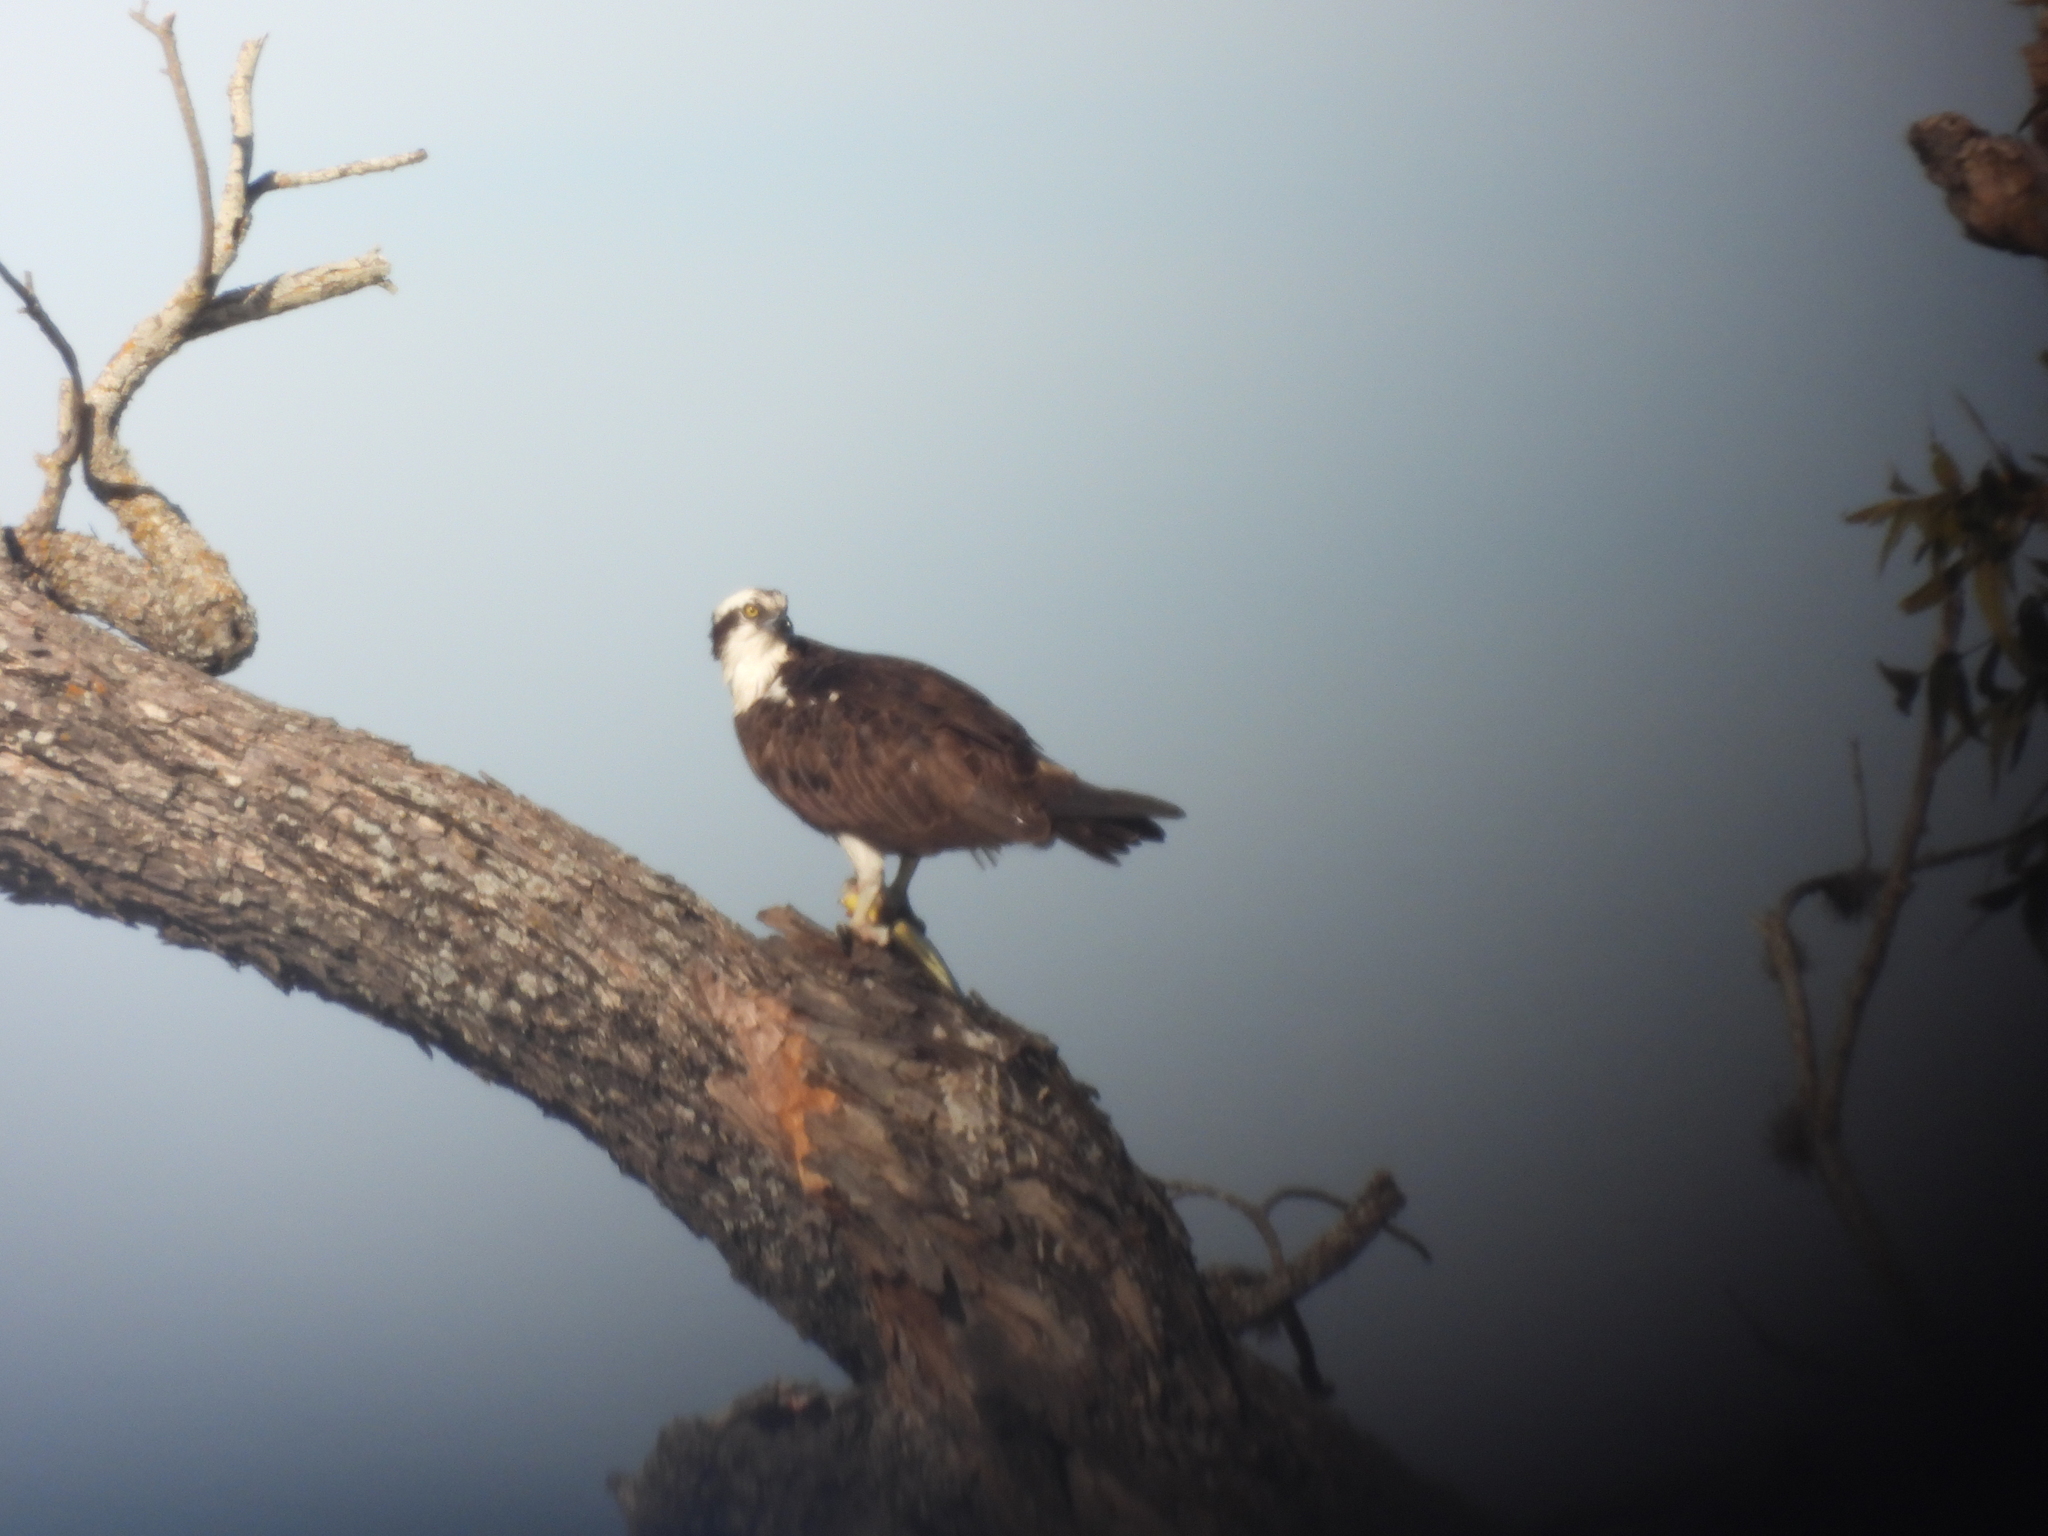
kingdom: Animalia
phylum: Chordata
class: Aves
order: Accipitriformes
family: Pandionidae
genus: Pandion
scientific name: Pandion haliaetus
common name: Osprey
